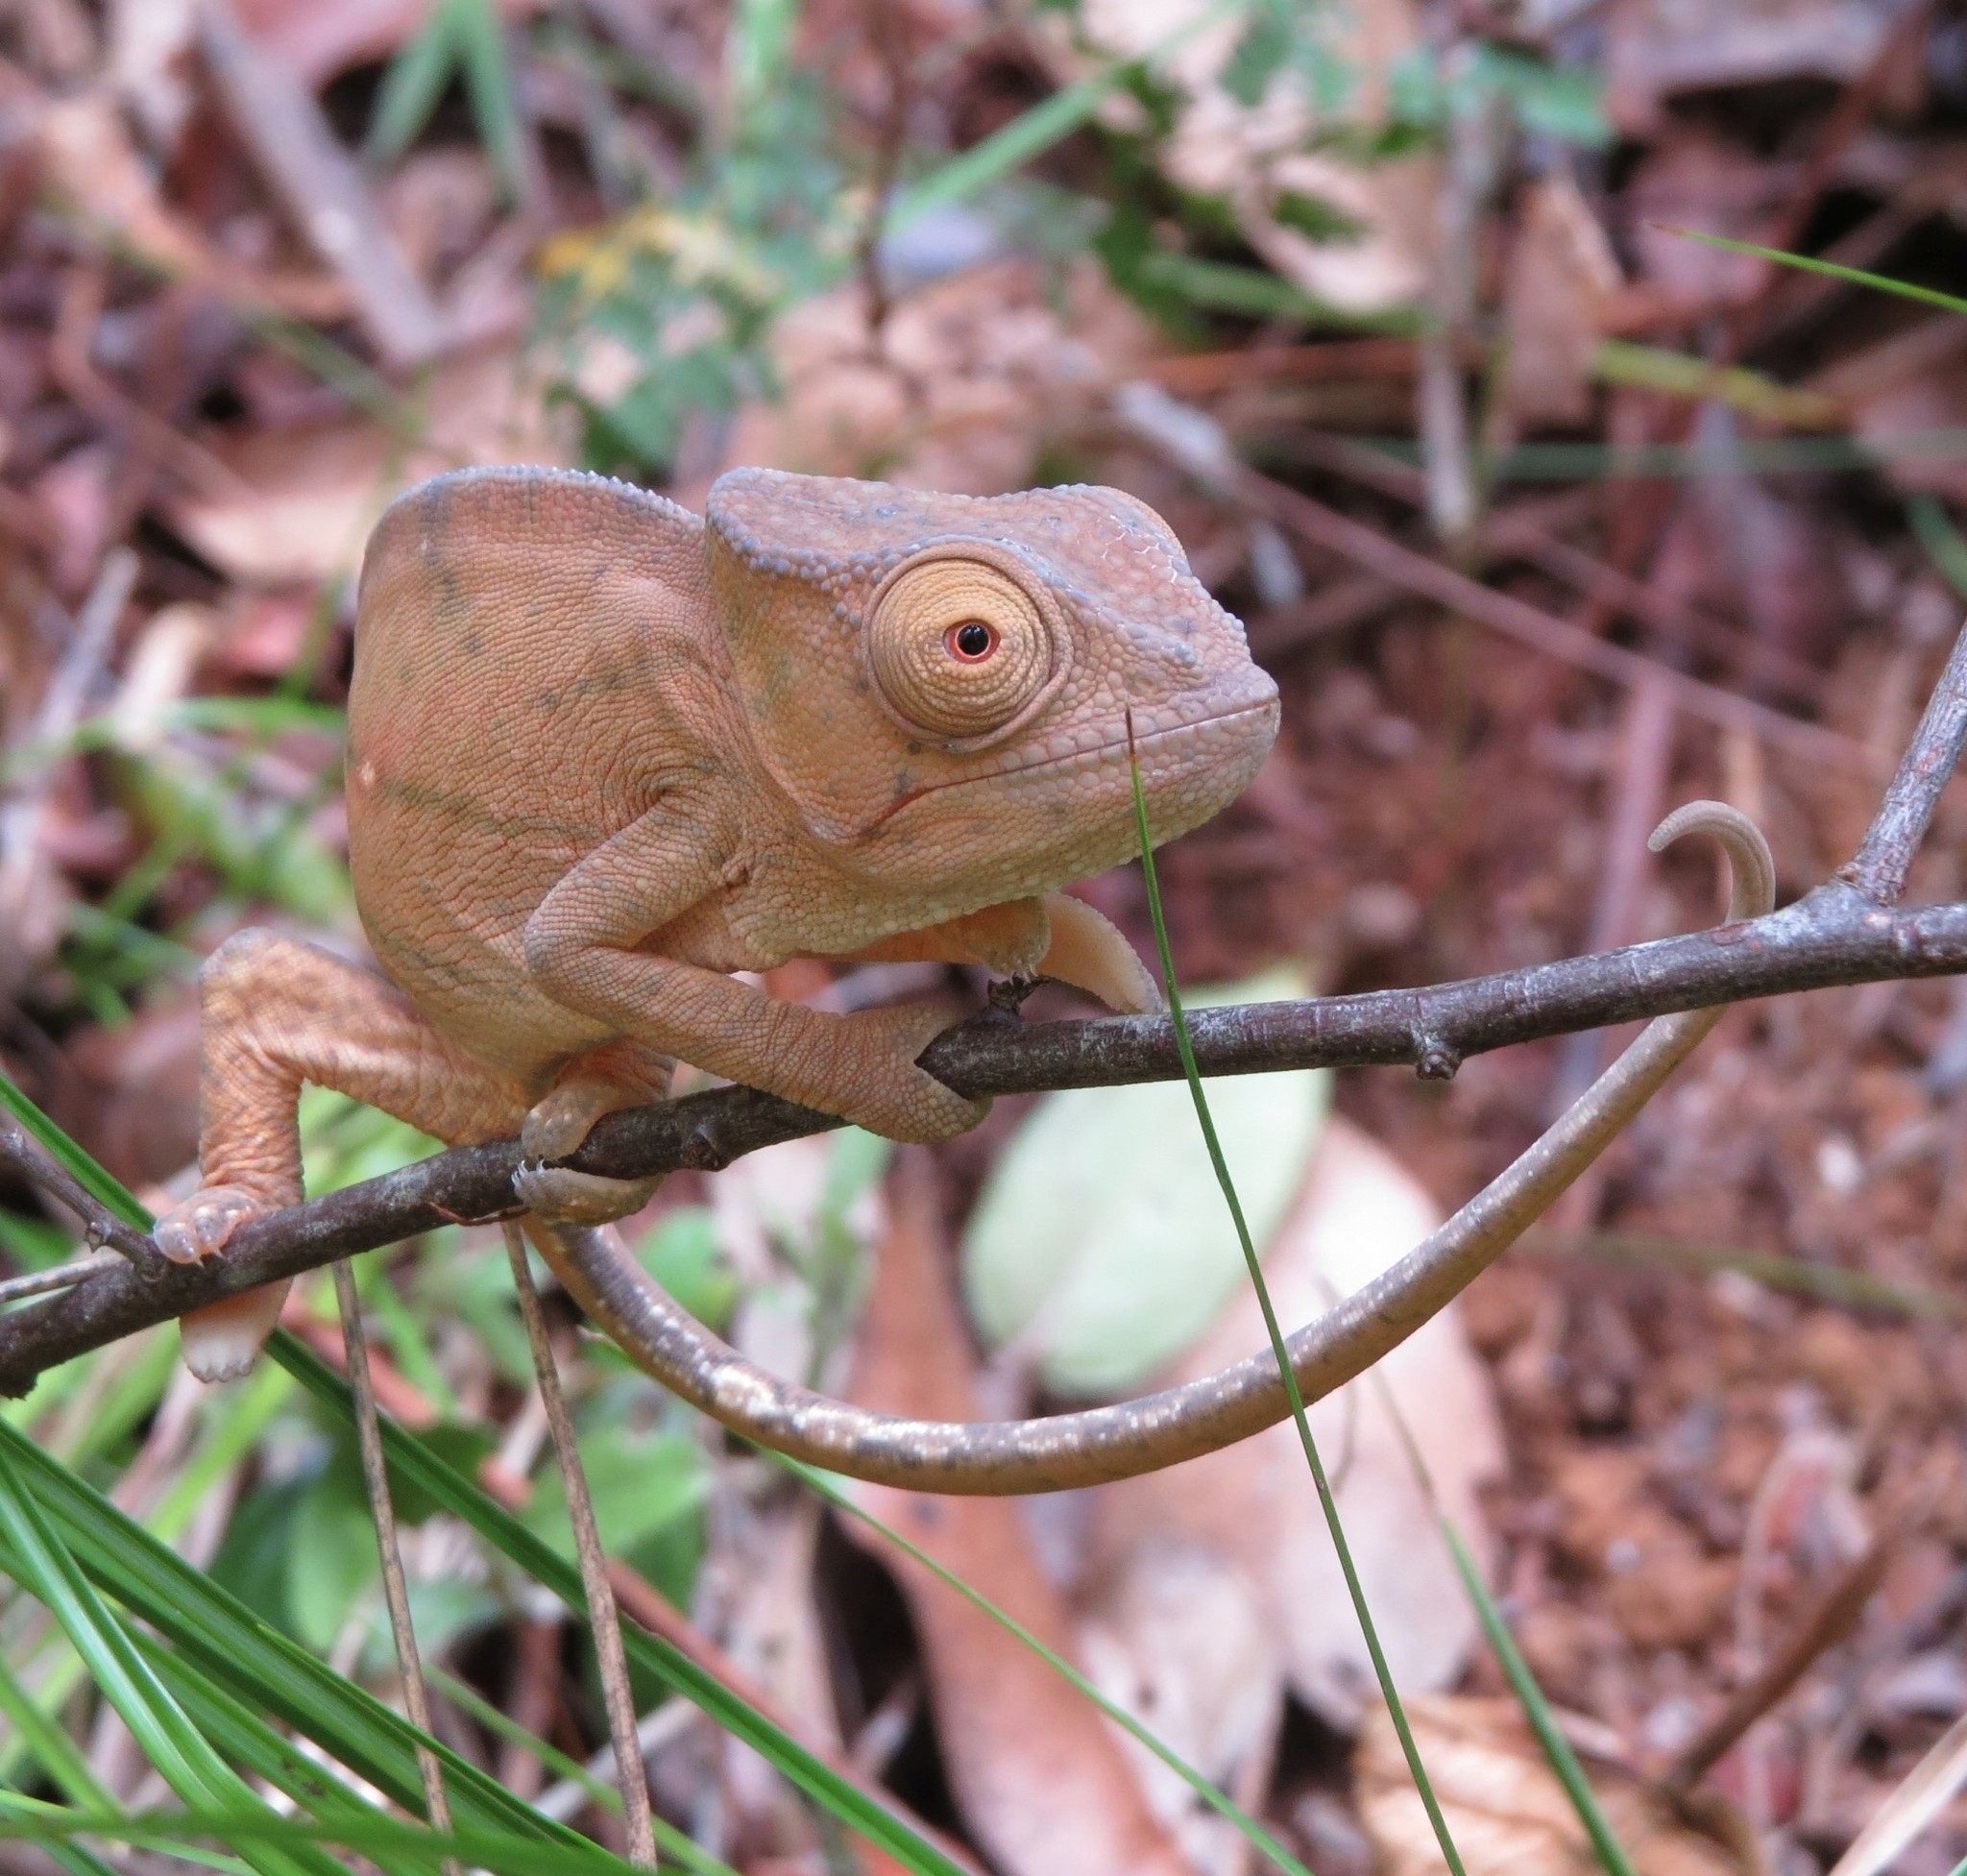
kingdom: Animalia
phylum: Chordata
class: Squamata
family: Chamaeleonidae
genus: Calumma
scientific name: Calumma parsonii
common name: Parson's chameleon
